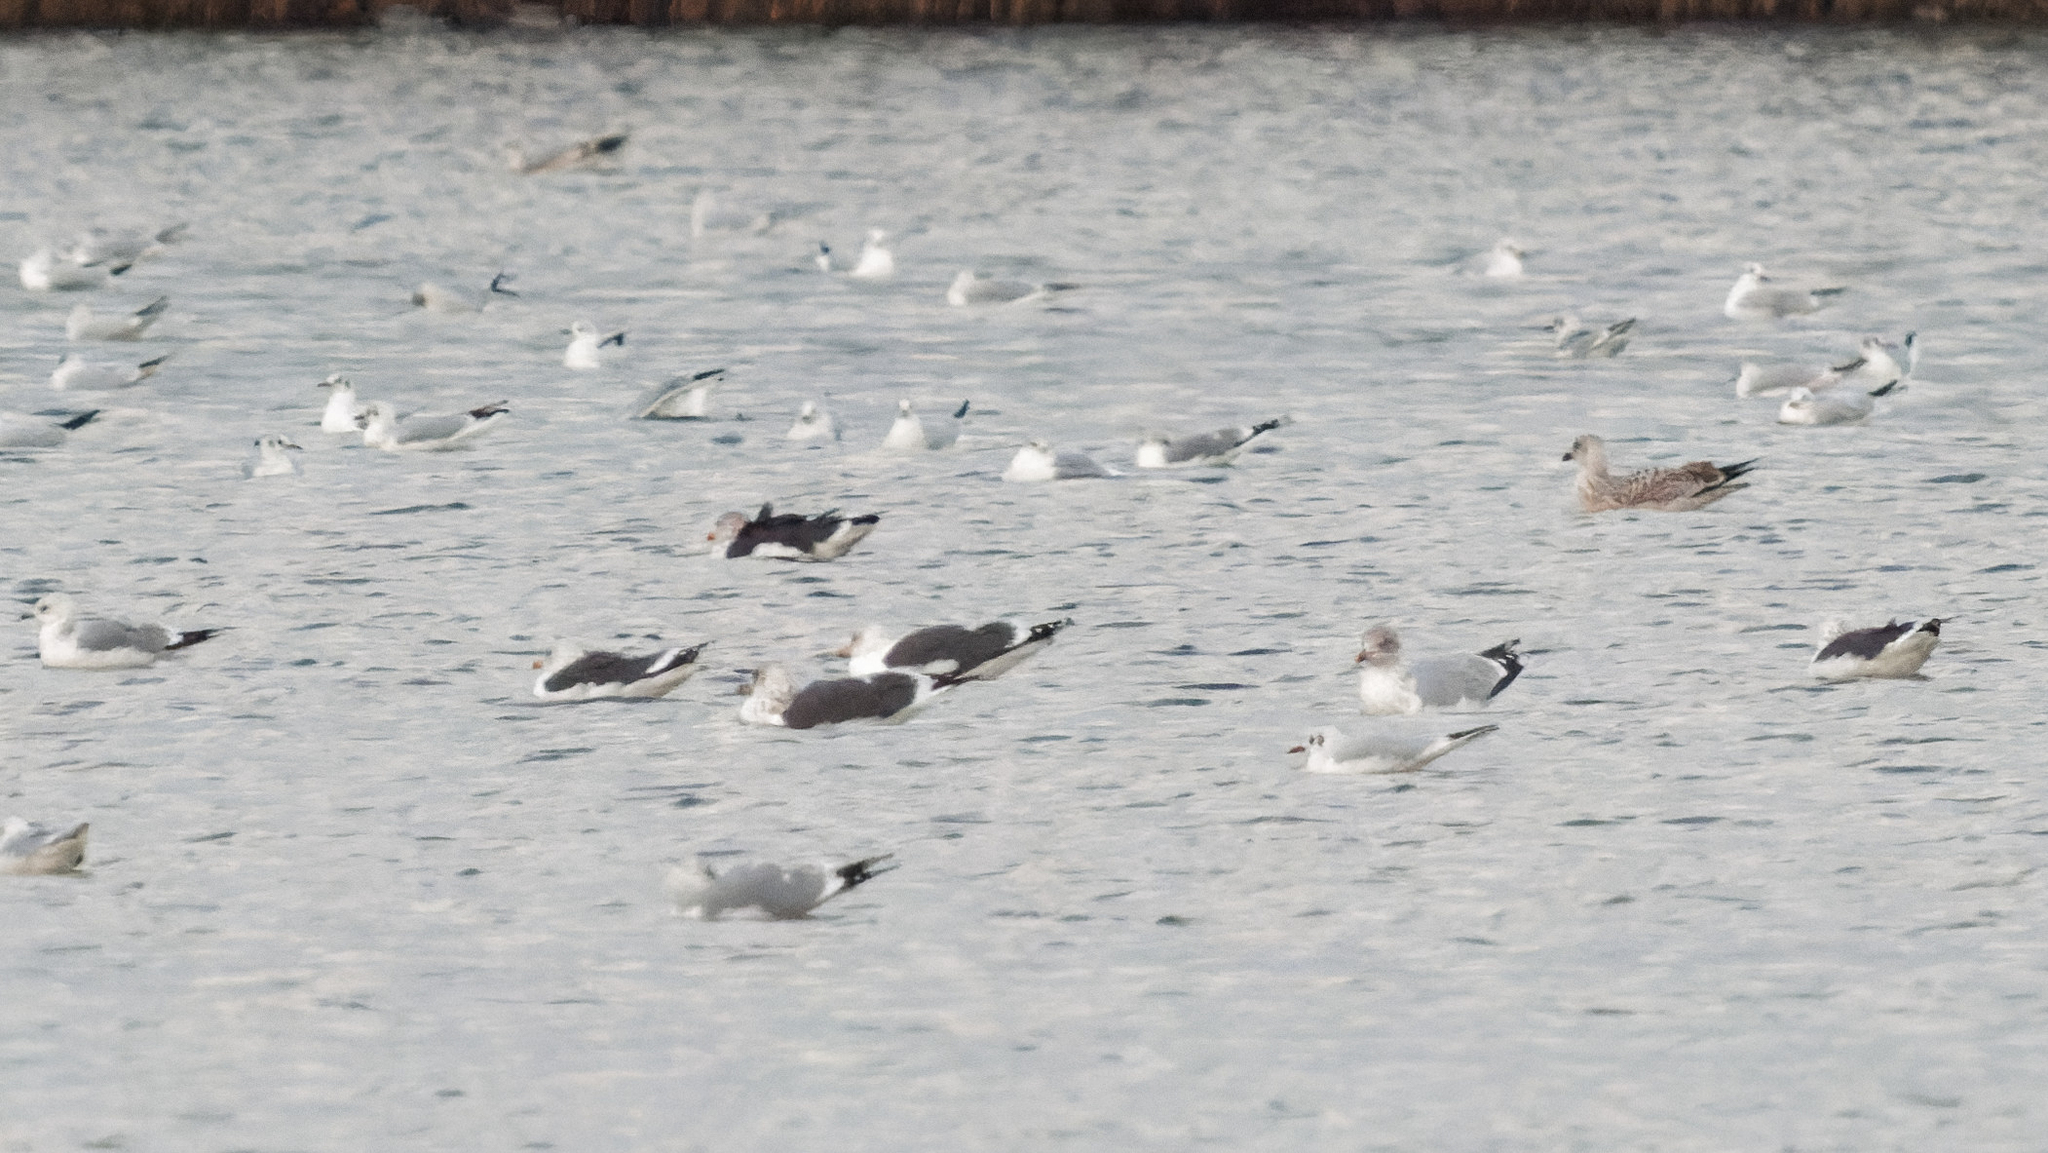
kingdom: Animalia
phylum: Chordata
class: Aves
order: Charadriiformes
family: Laridae
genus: Larus
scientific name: Larus fuscus
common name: Lesser black-backed gull
